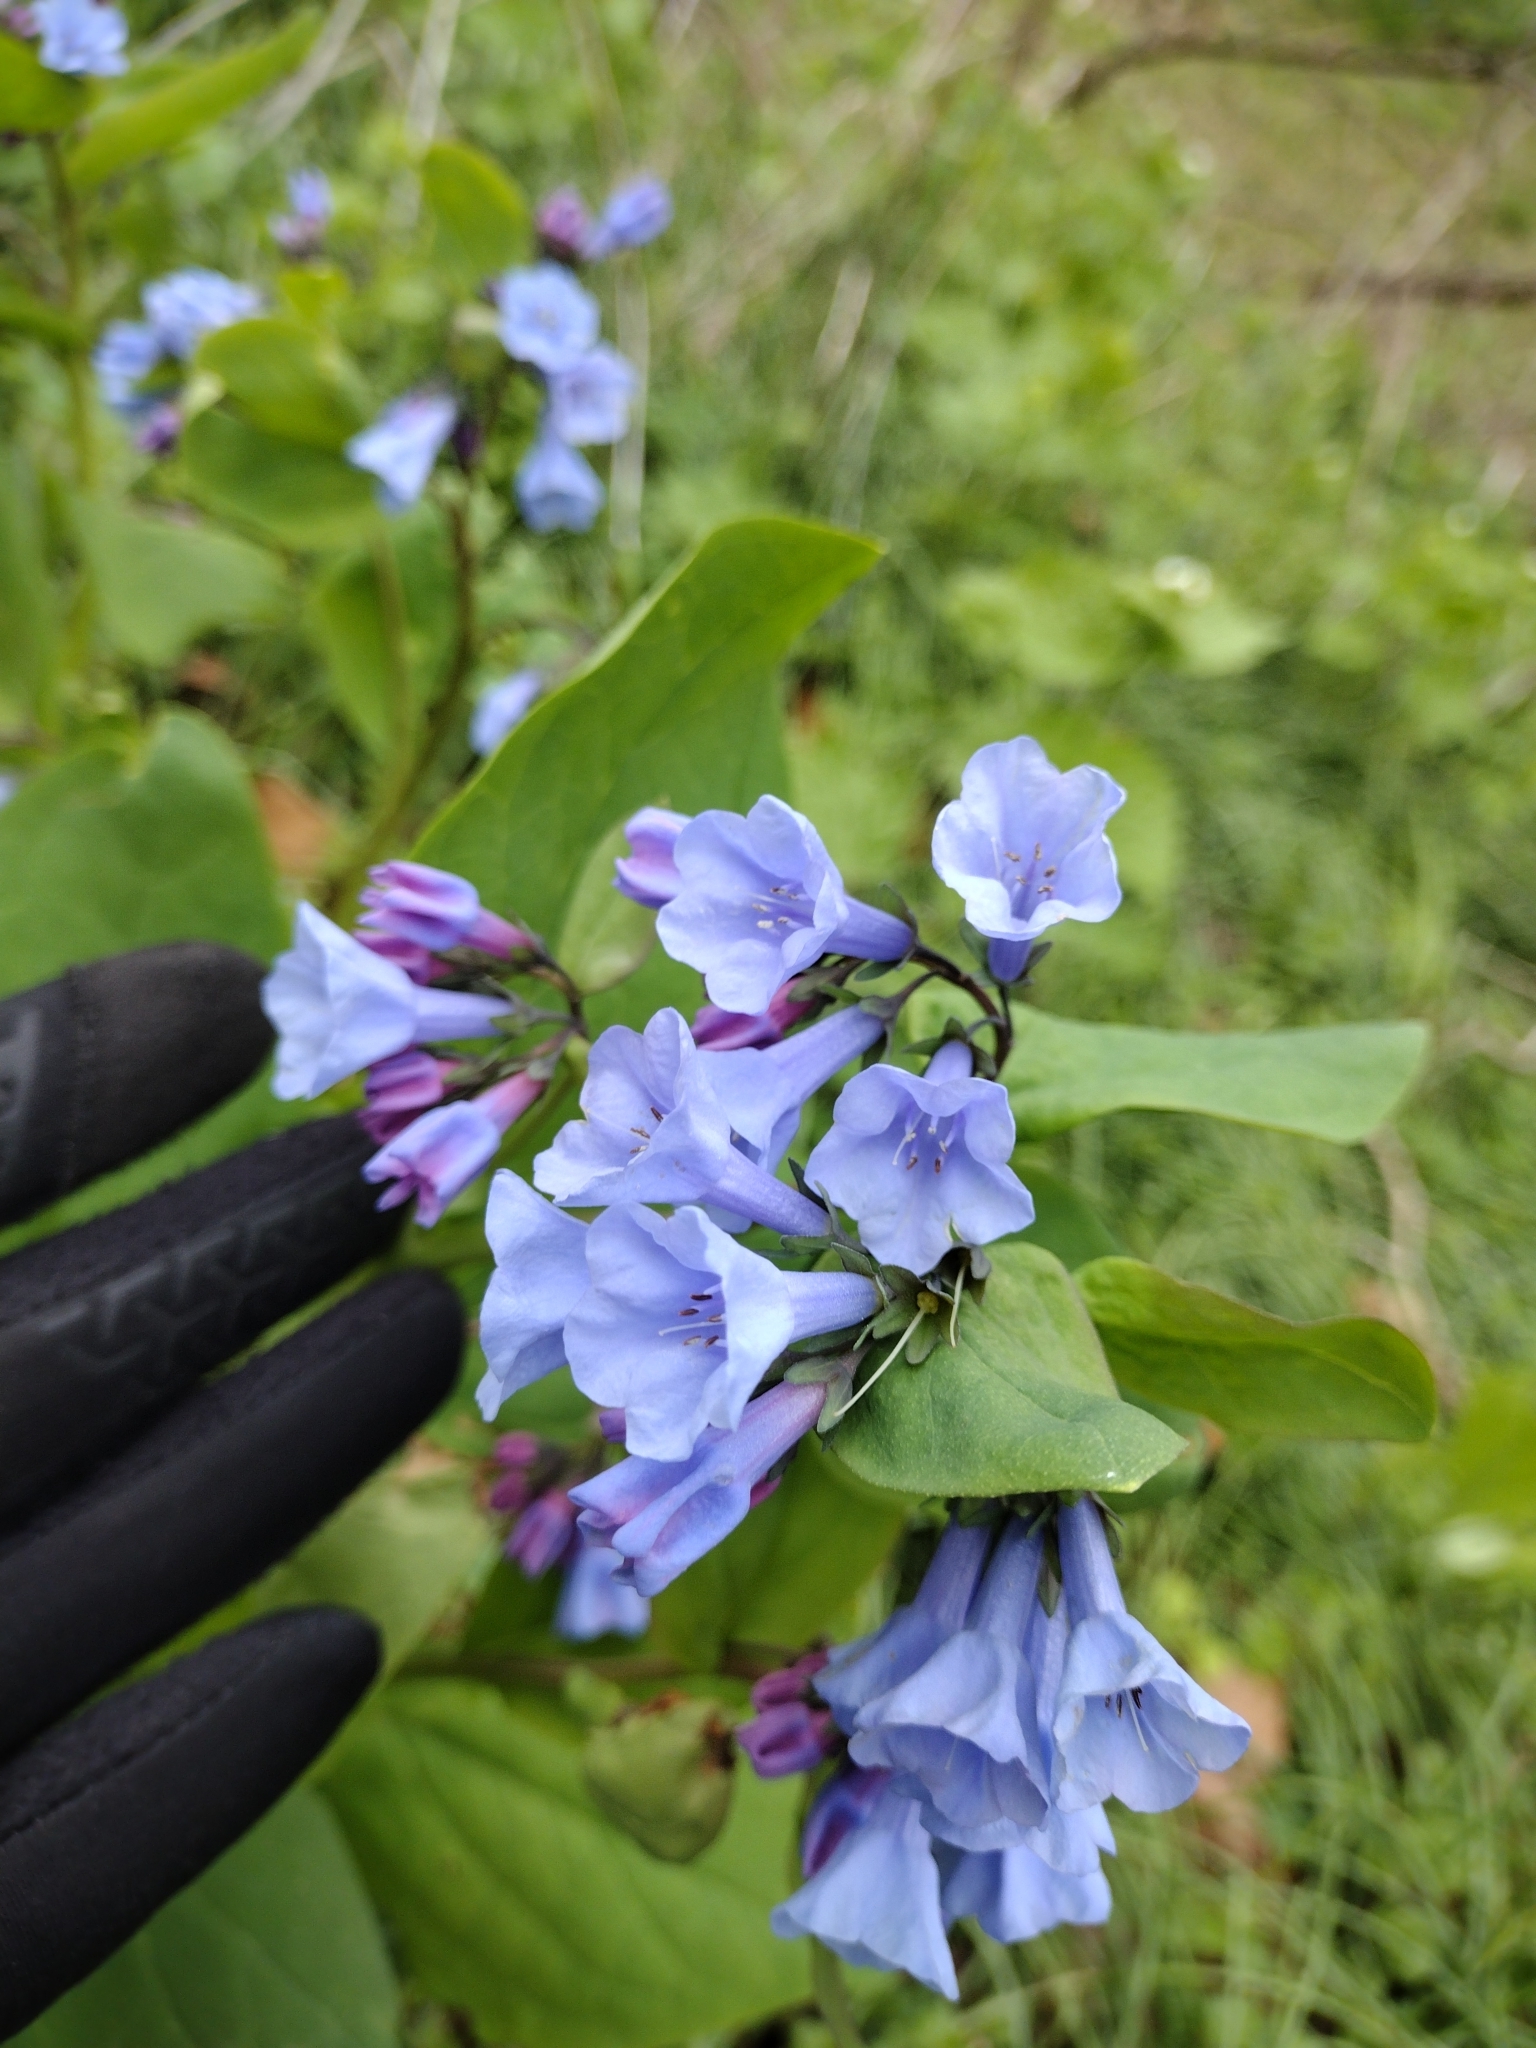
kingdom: Plantae
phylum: Tracheophyta
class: Magnoliopsida
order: Boraginales
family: Boraginaceae
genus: Mertensia
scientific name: Mertensia virginica
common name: Virginia bluebells
